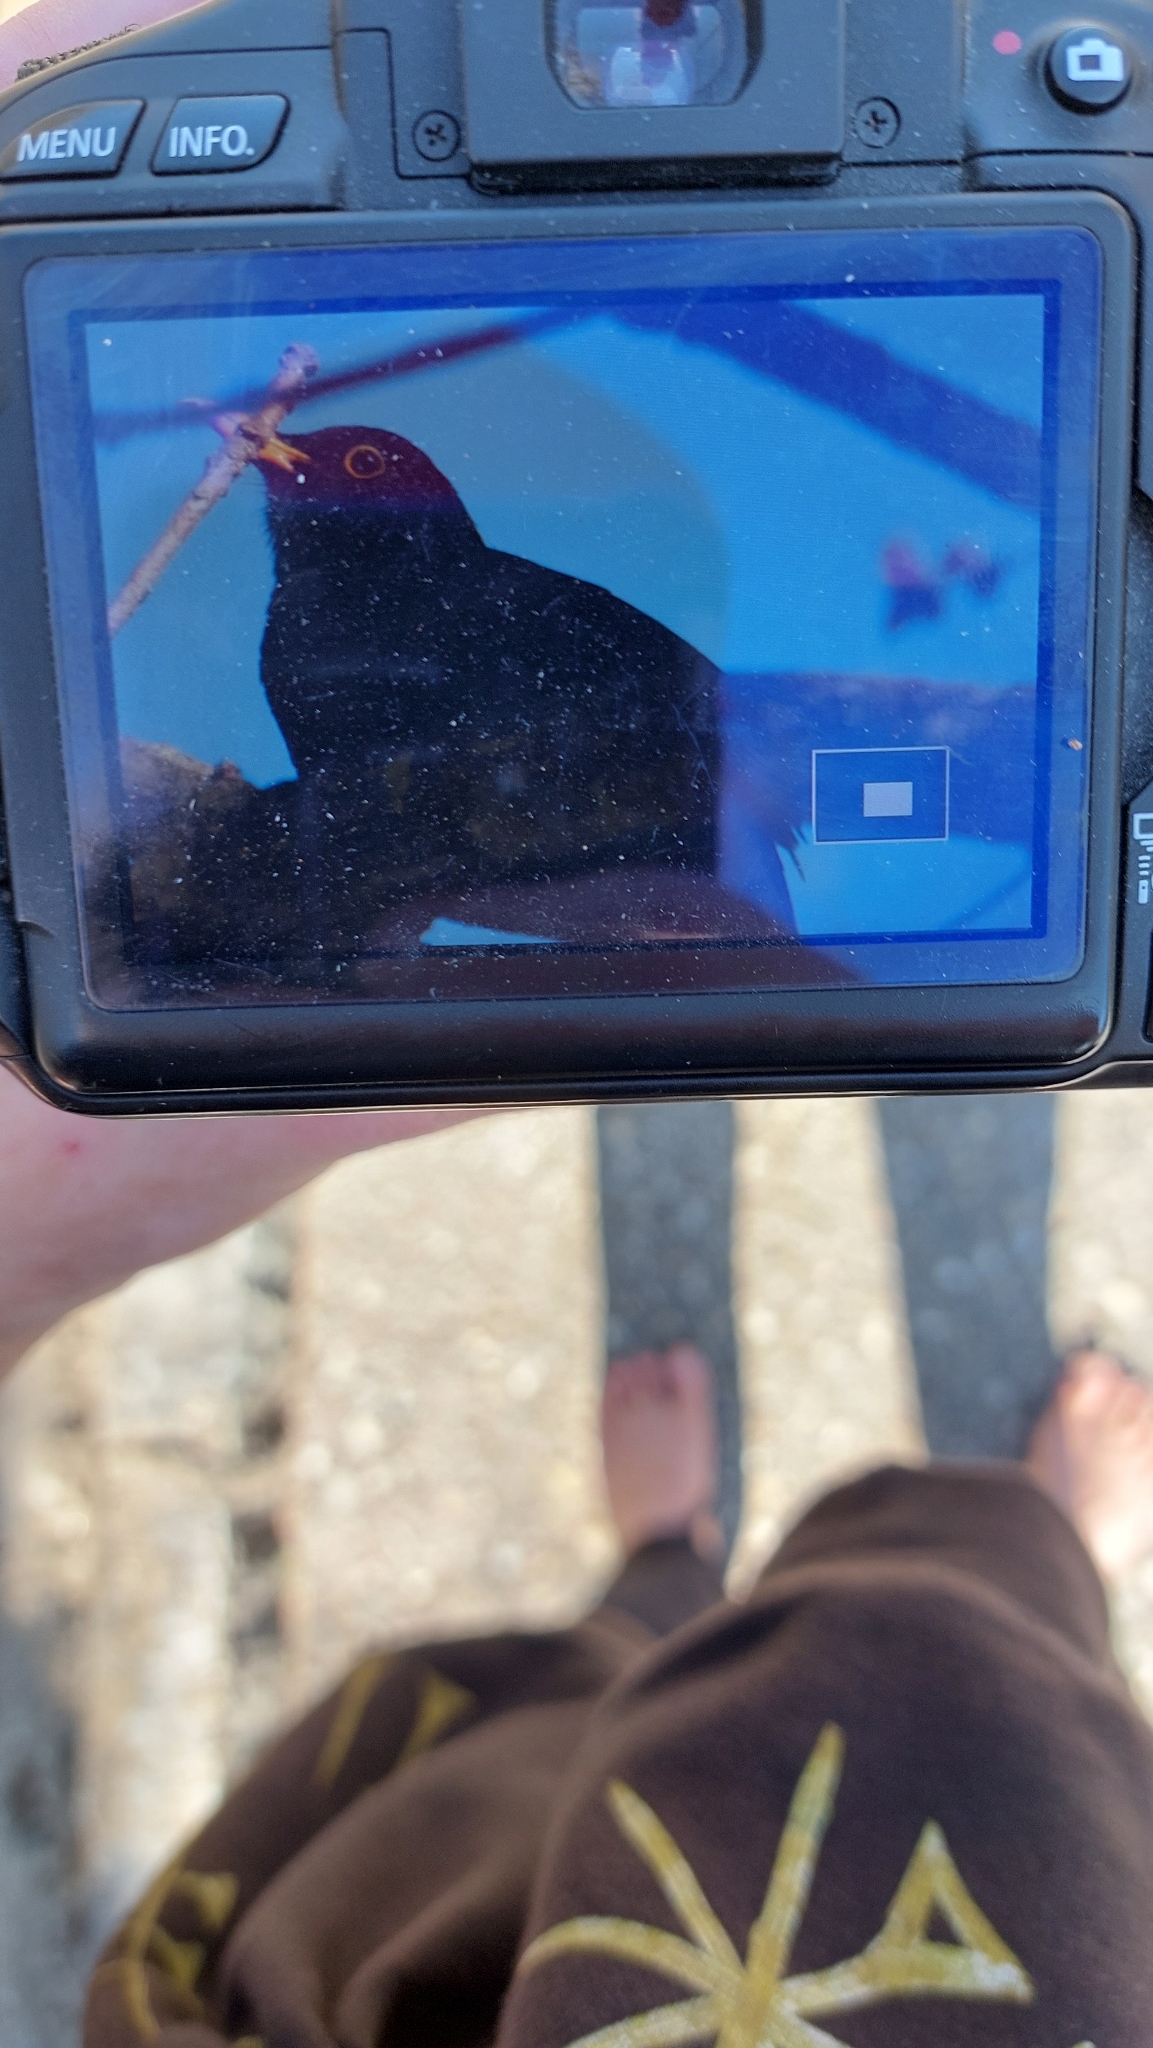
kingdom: Animalia
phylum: Chordata
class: Aves
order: Passeriformes
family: Turdidae
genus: Turdus
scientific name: Turdus merula
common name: Common blackbird
